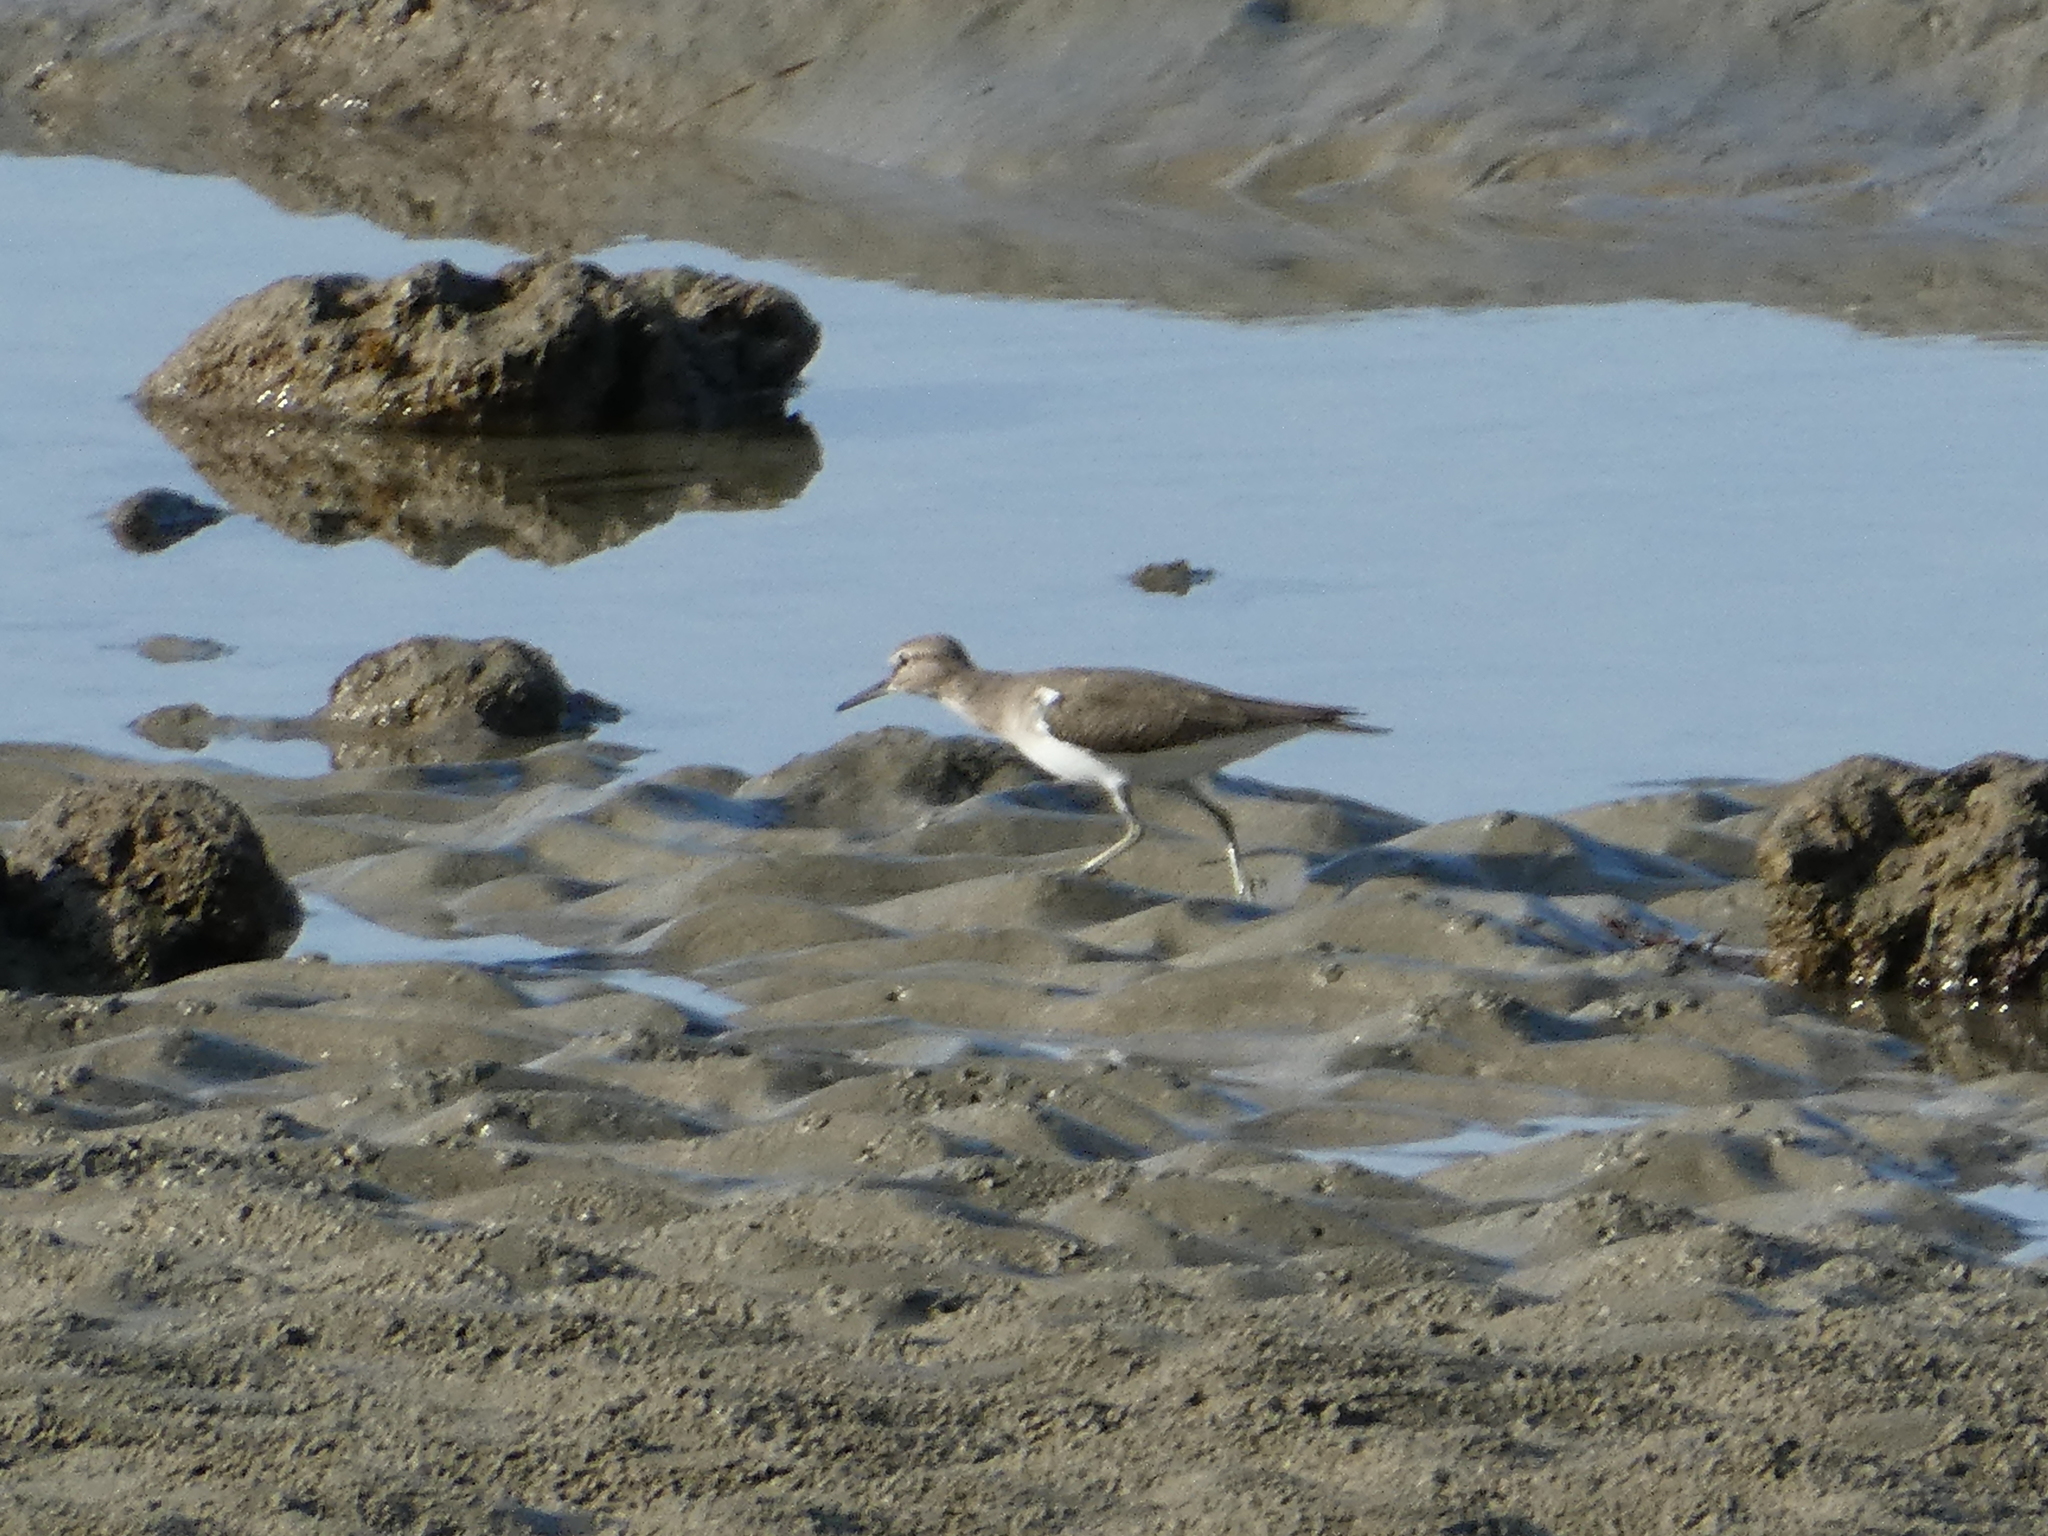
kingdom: Animalia
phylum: Chordata
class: Aves
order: Charadriiformes
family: Scolopacidae
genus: Actitis
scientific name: Actitis hypoleucos
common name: Common sandpiper
